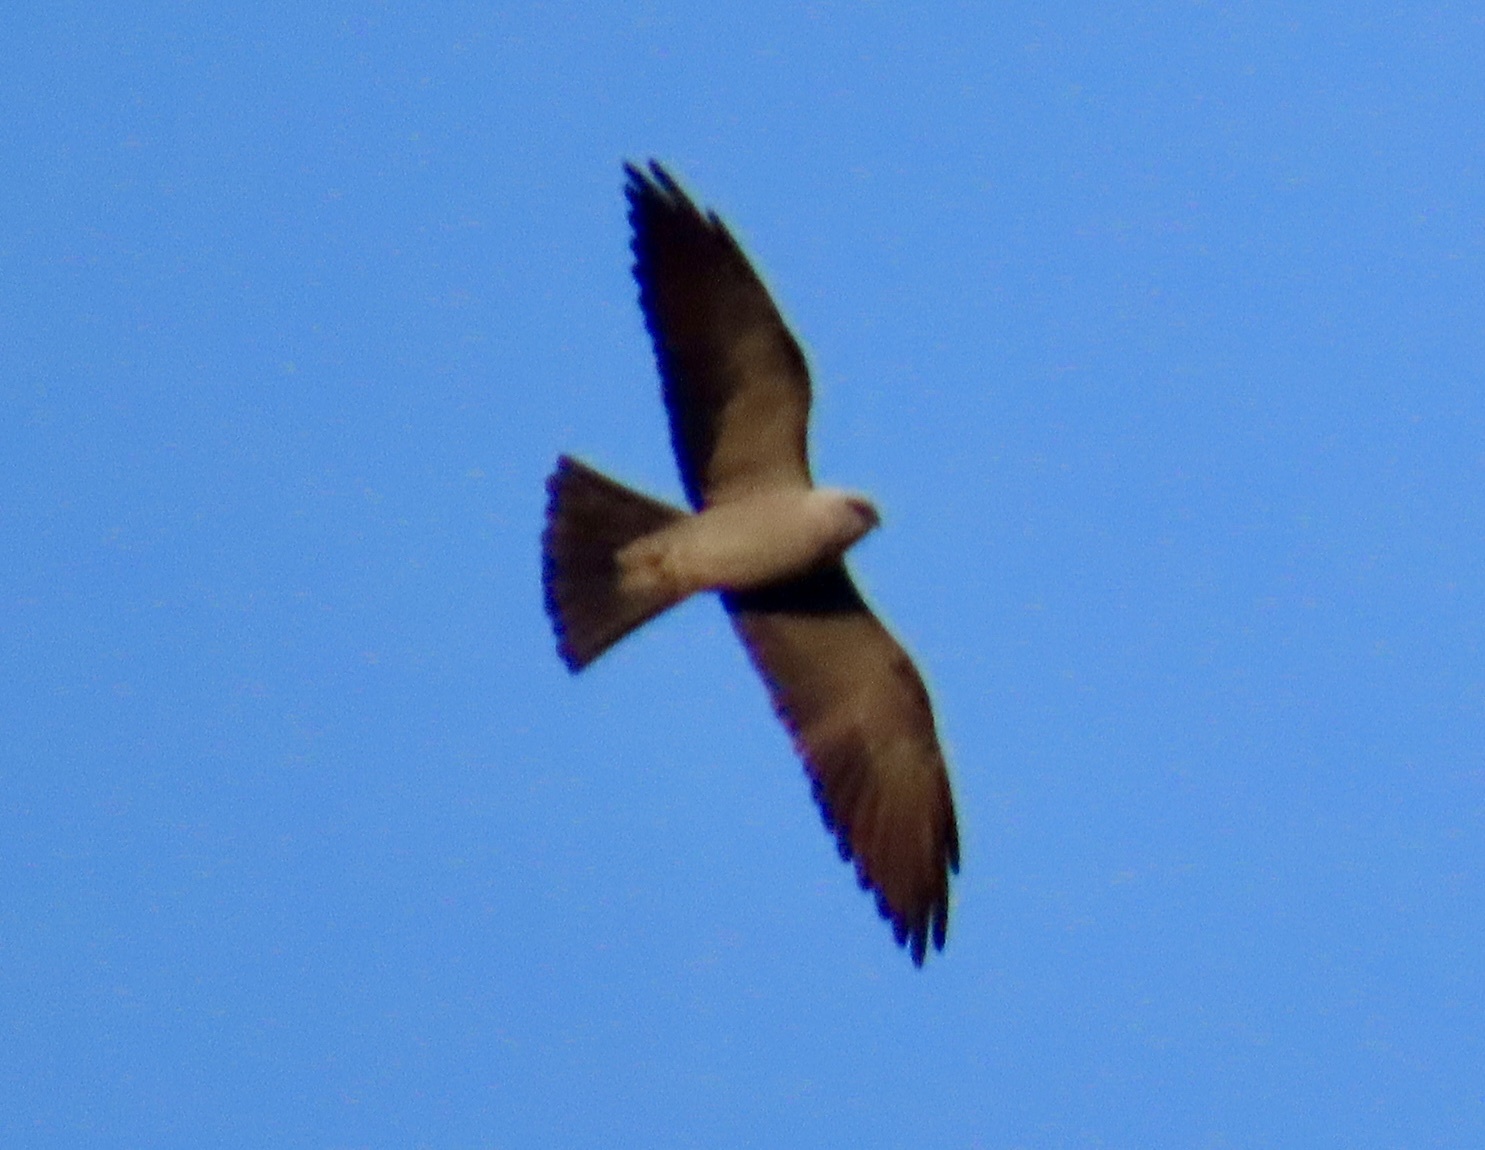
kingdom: Animalia
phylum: Chordata
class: Aves
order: Accipitriformes
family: Accipitridae
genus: Ictinia
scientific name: Ictinia mississippiensis
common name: Mississippi kite
